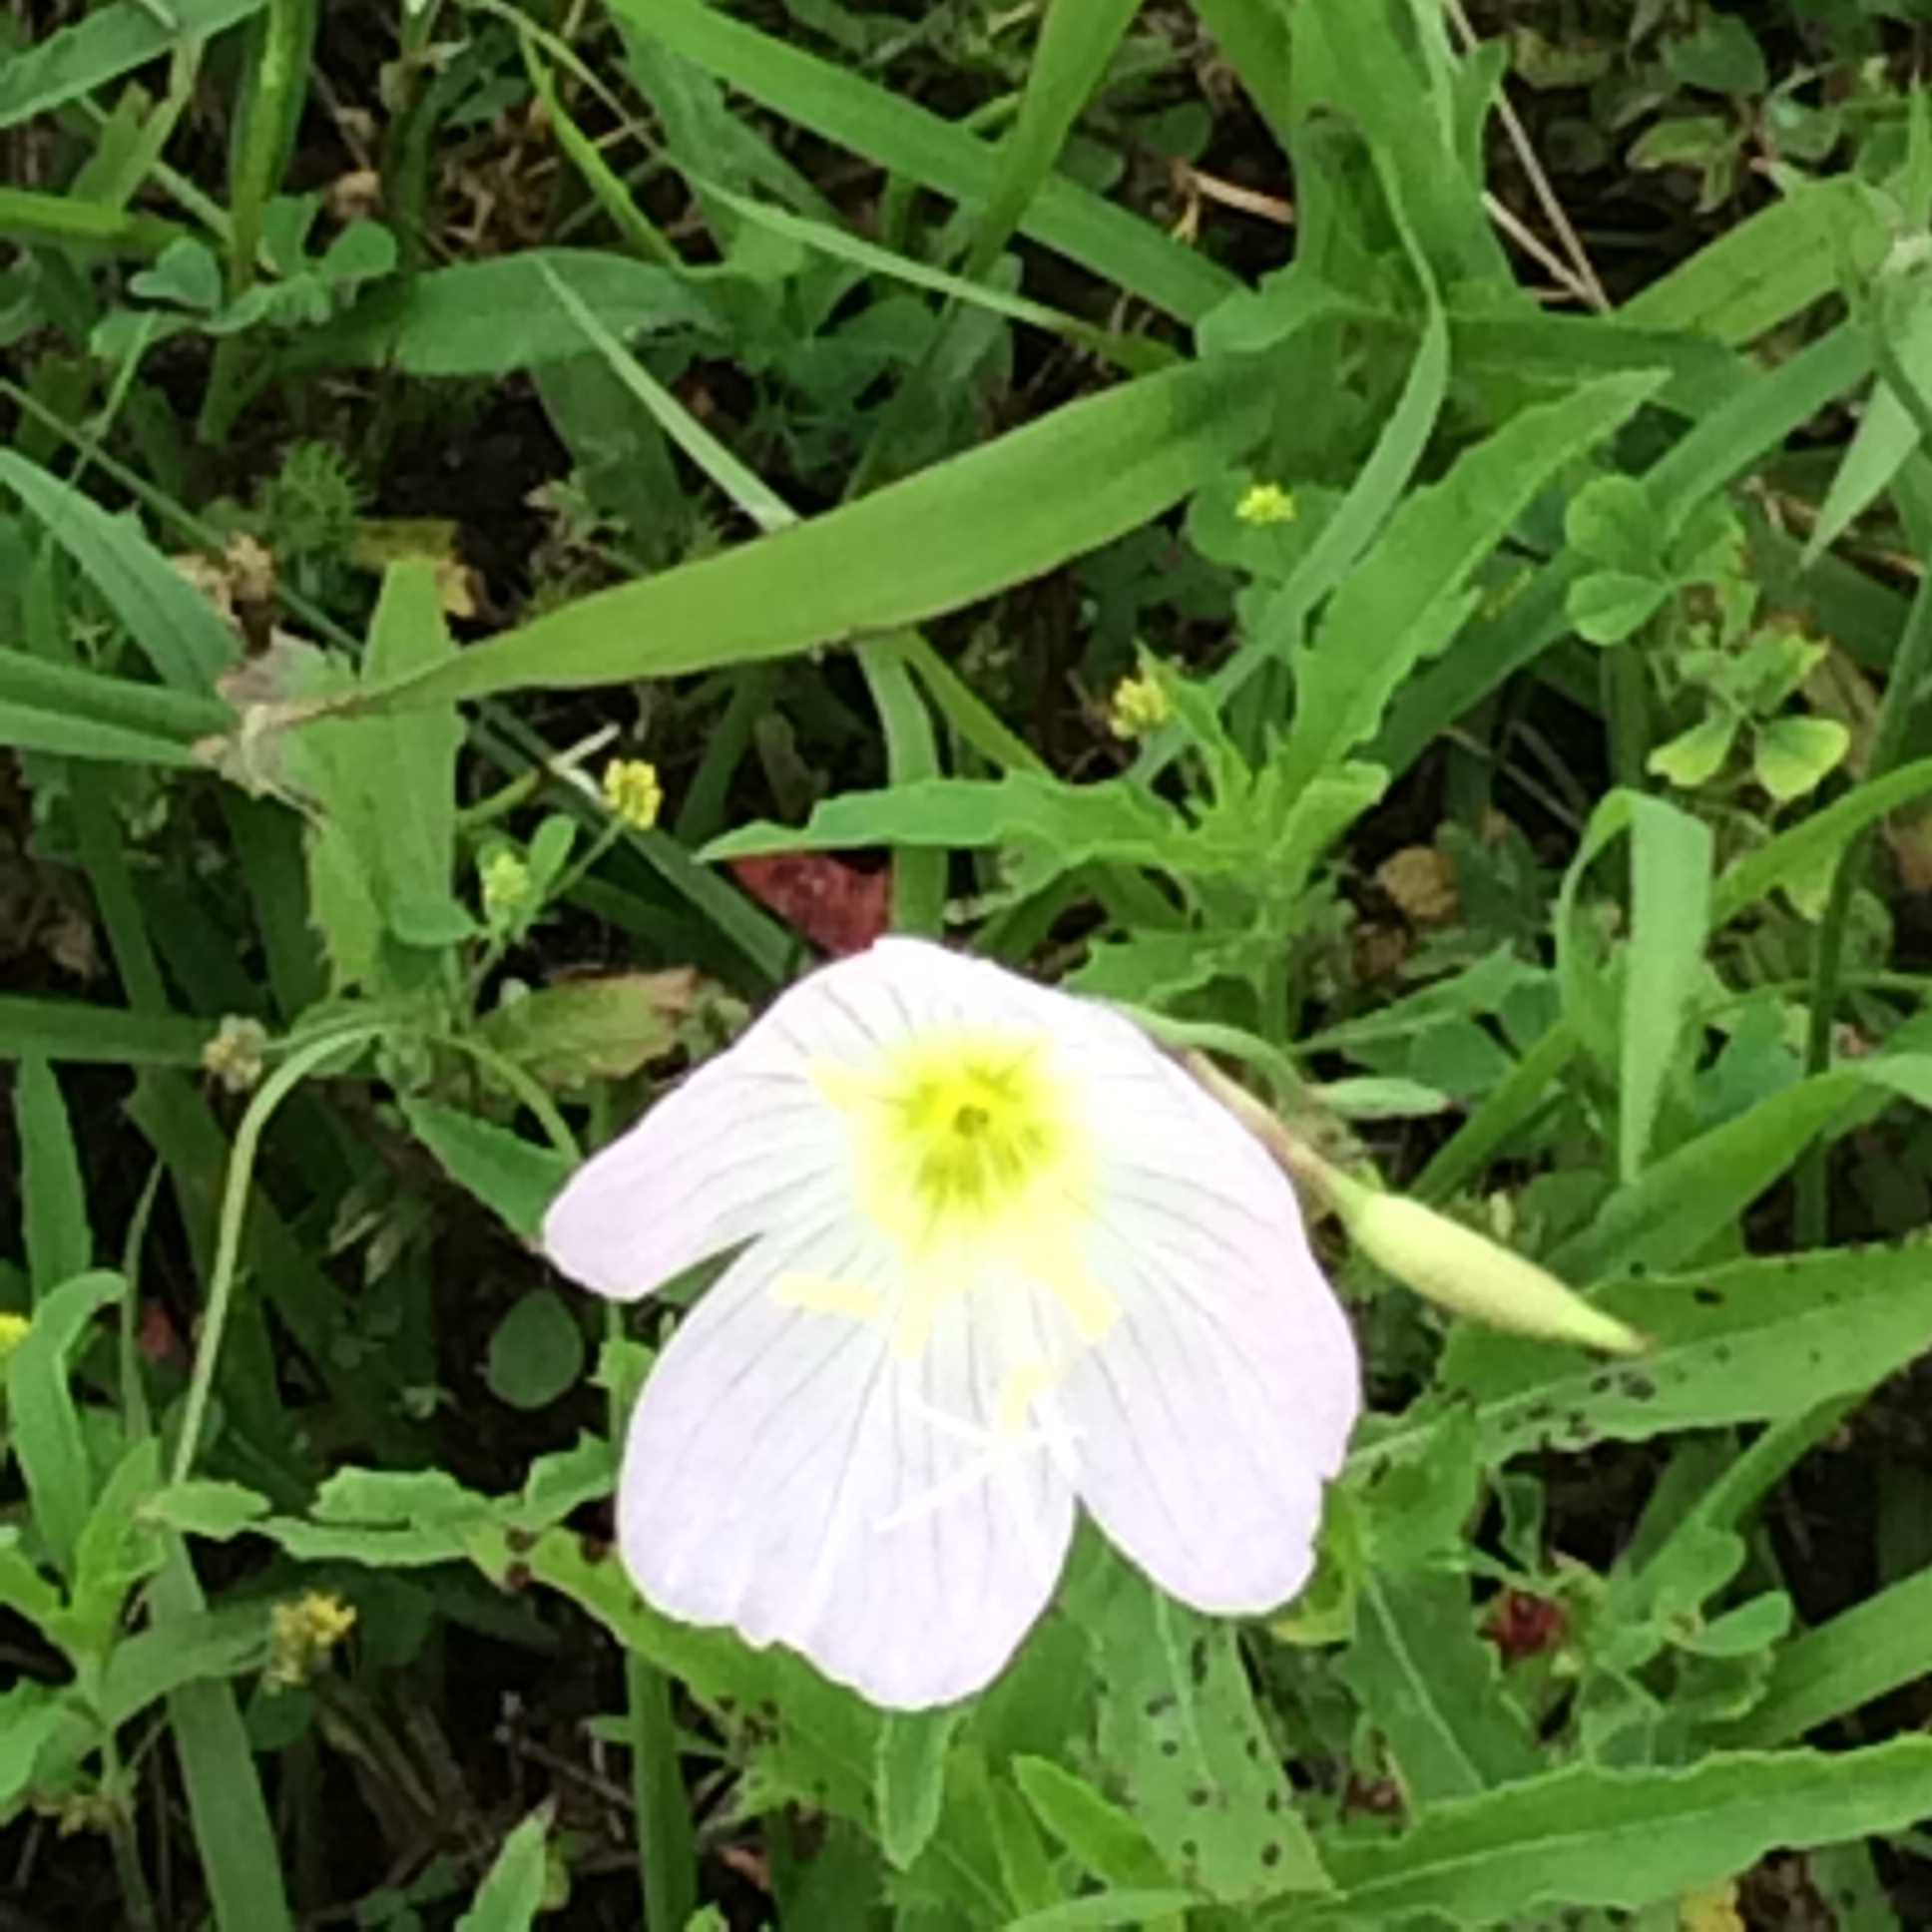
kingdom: Plantae
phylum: Tracheophyta
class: Magnoliopsida
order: Myrtales
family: Onagraceae
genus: Oenothera
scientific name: Oenothera speciosa
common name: White evening-primrose
